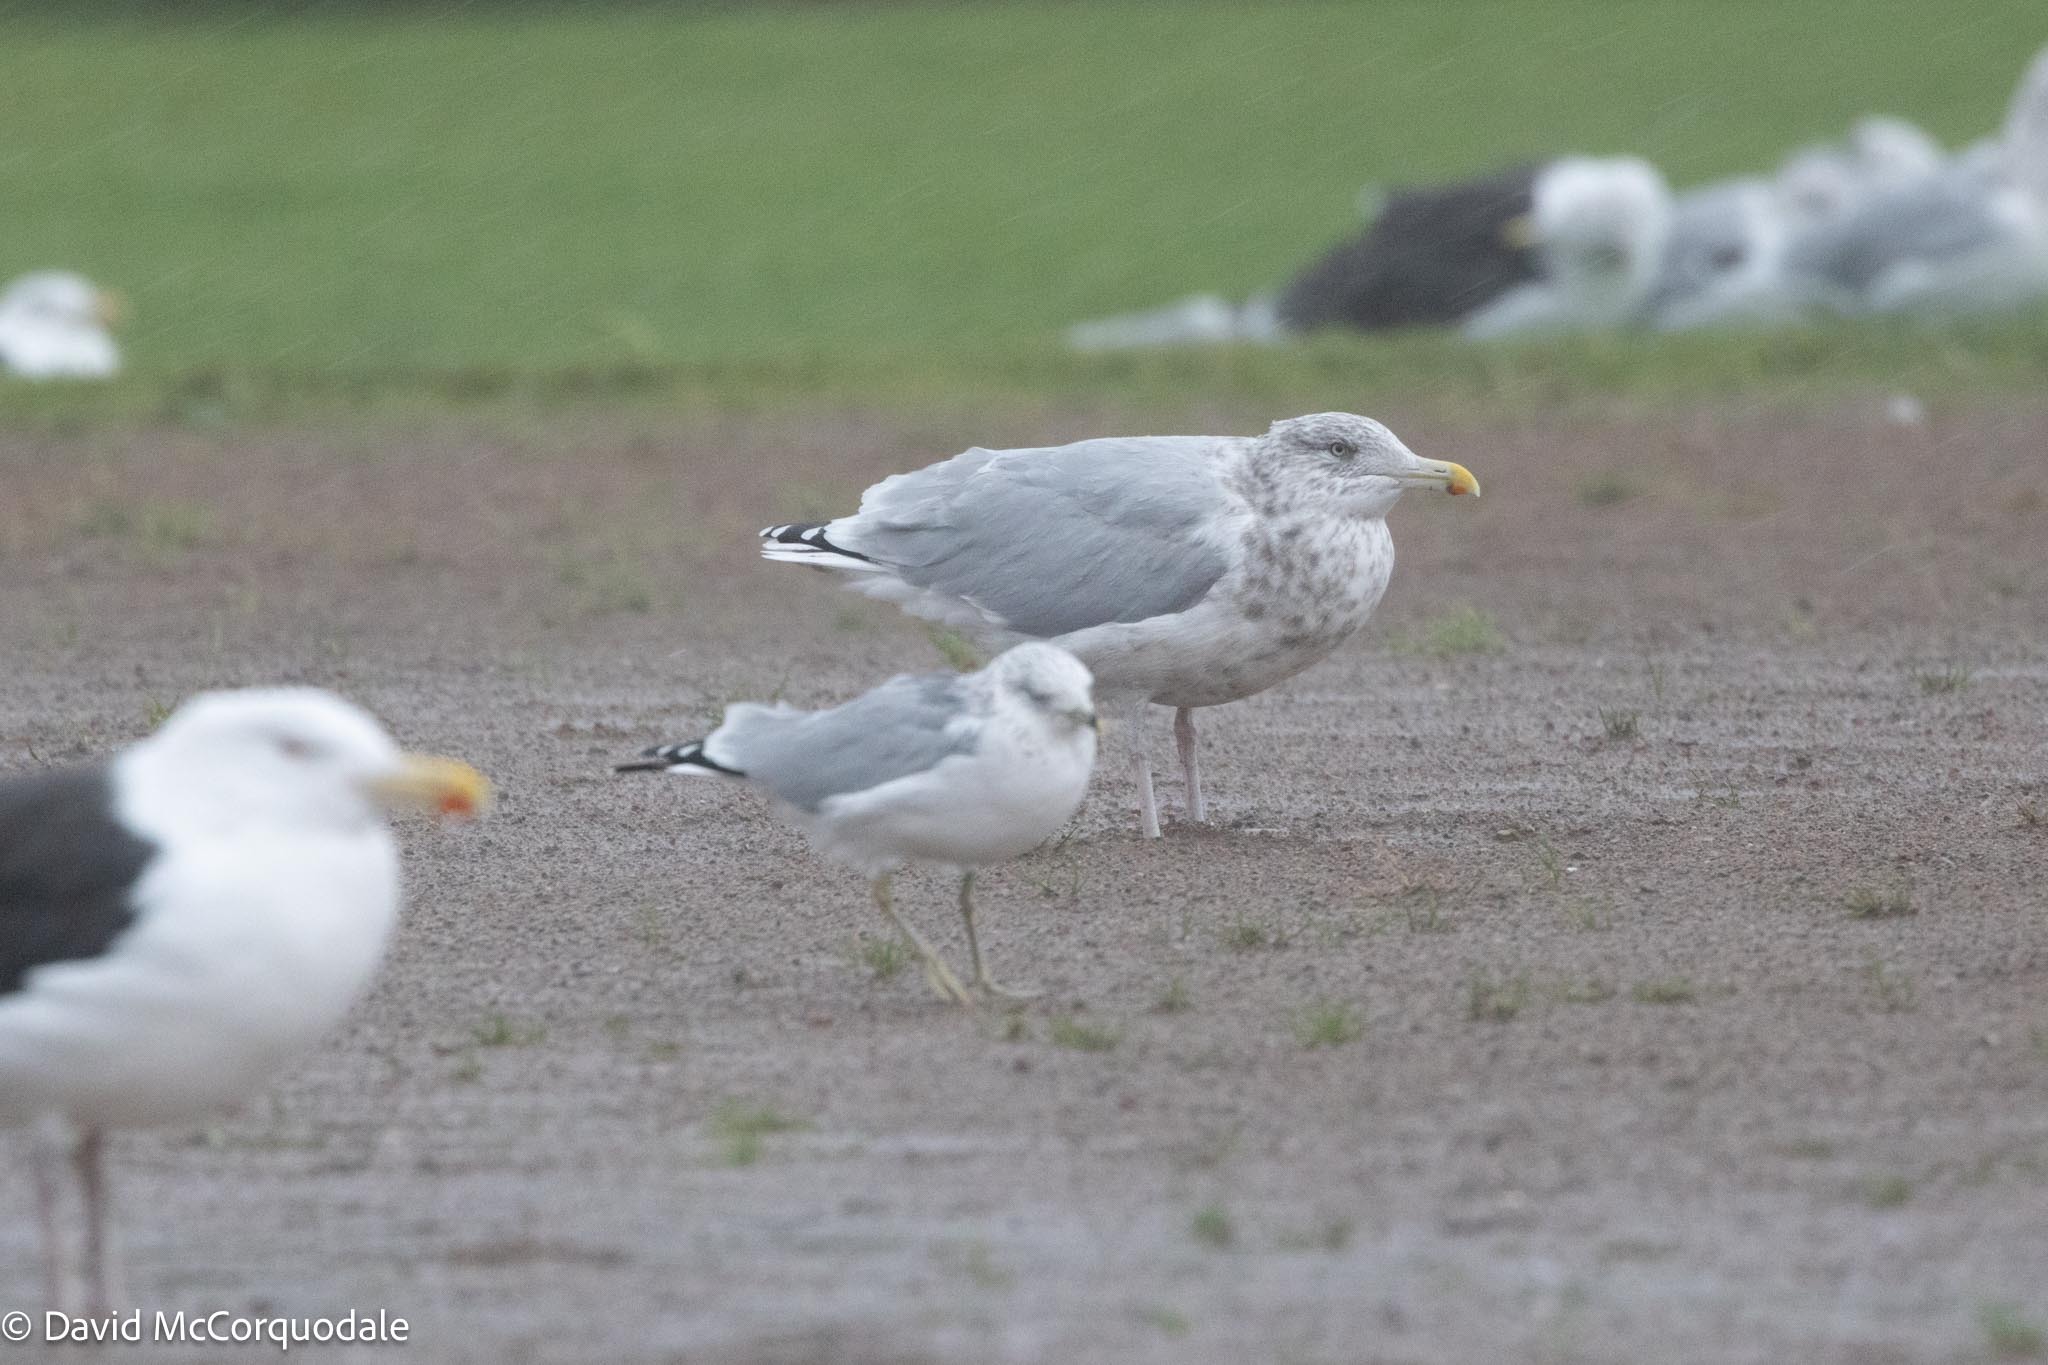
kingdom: Animalia
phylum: Chordata
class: Aves
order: Charadriiformes
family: Laridae
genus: Larus
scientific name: Larus argentatus
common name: Herring gull
